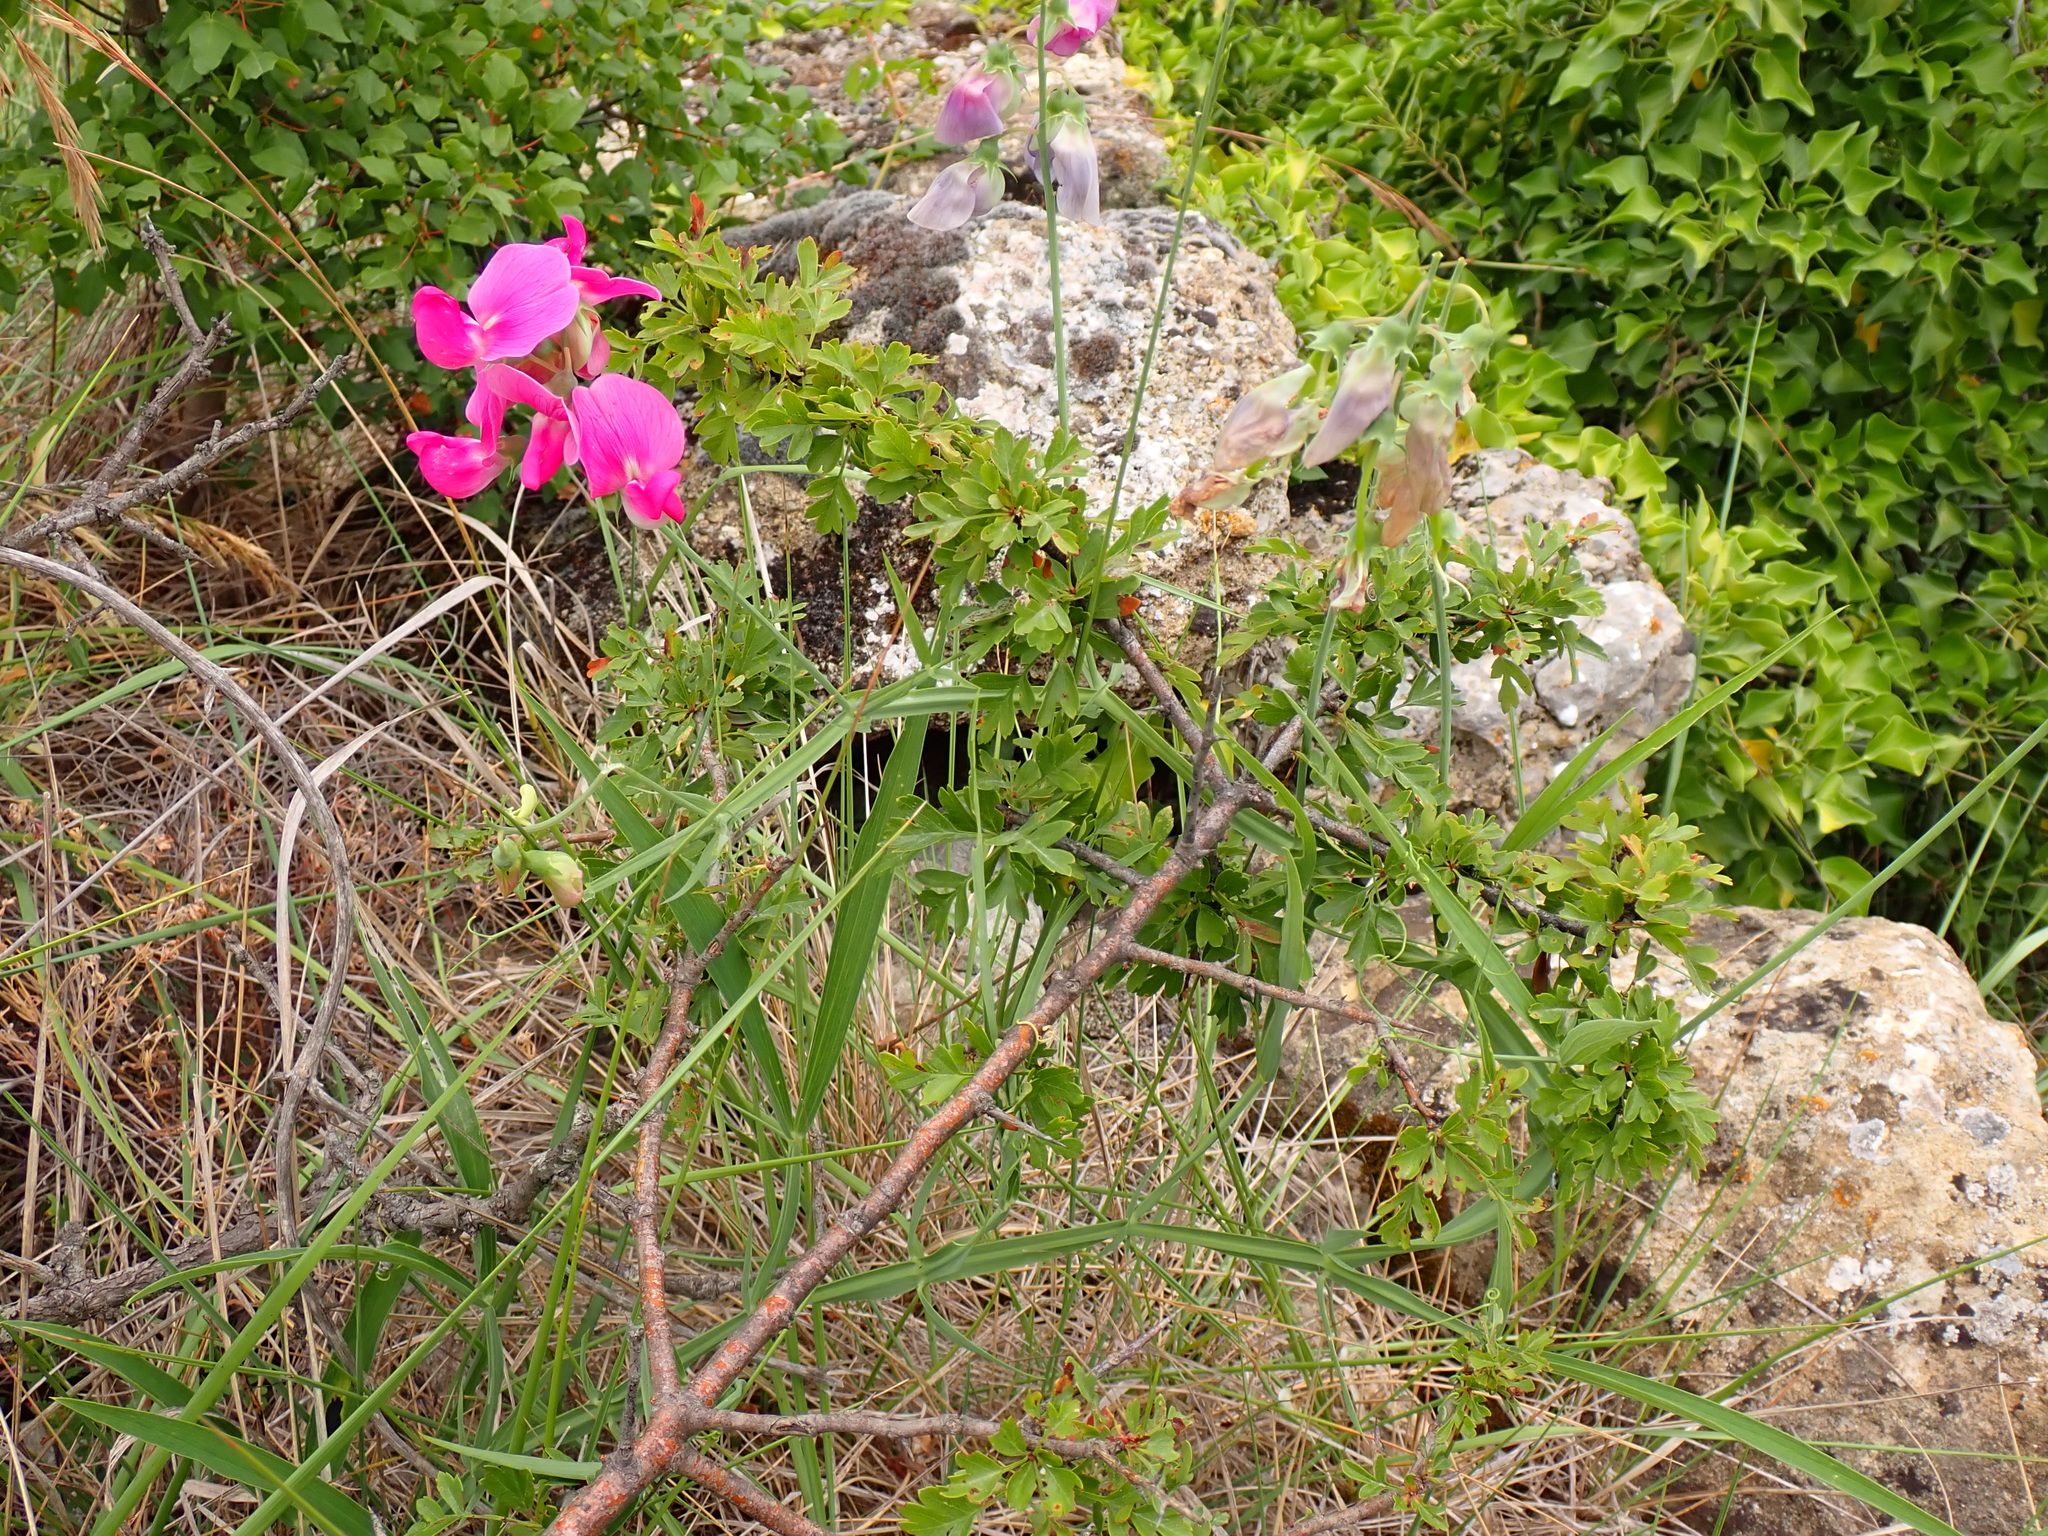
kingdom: Plantae
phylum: Tracheophyta
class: Magnoliopsida
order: Fabales
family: Fabaceae
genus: Lathyrus
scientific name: Lathyrus latifolius
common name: Perennial pea
